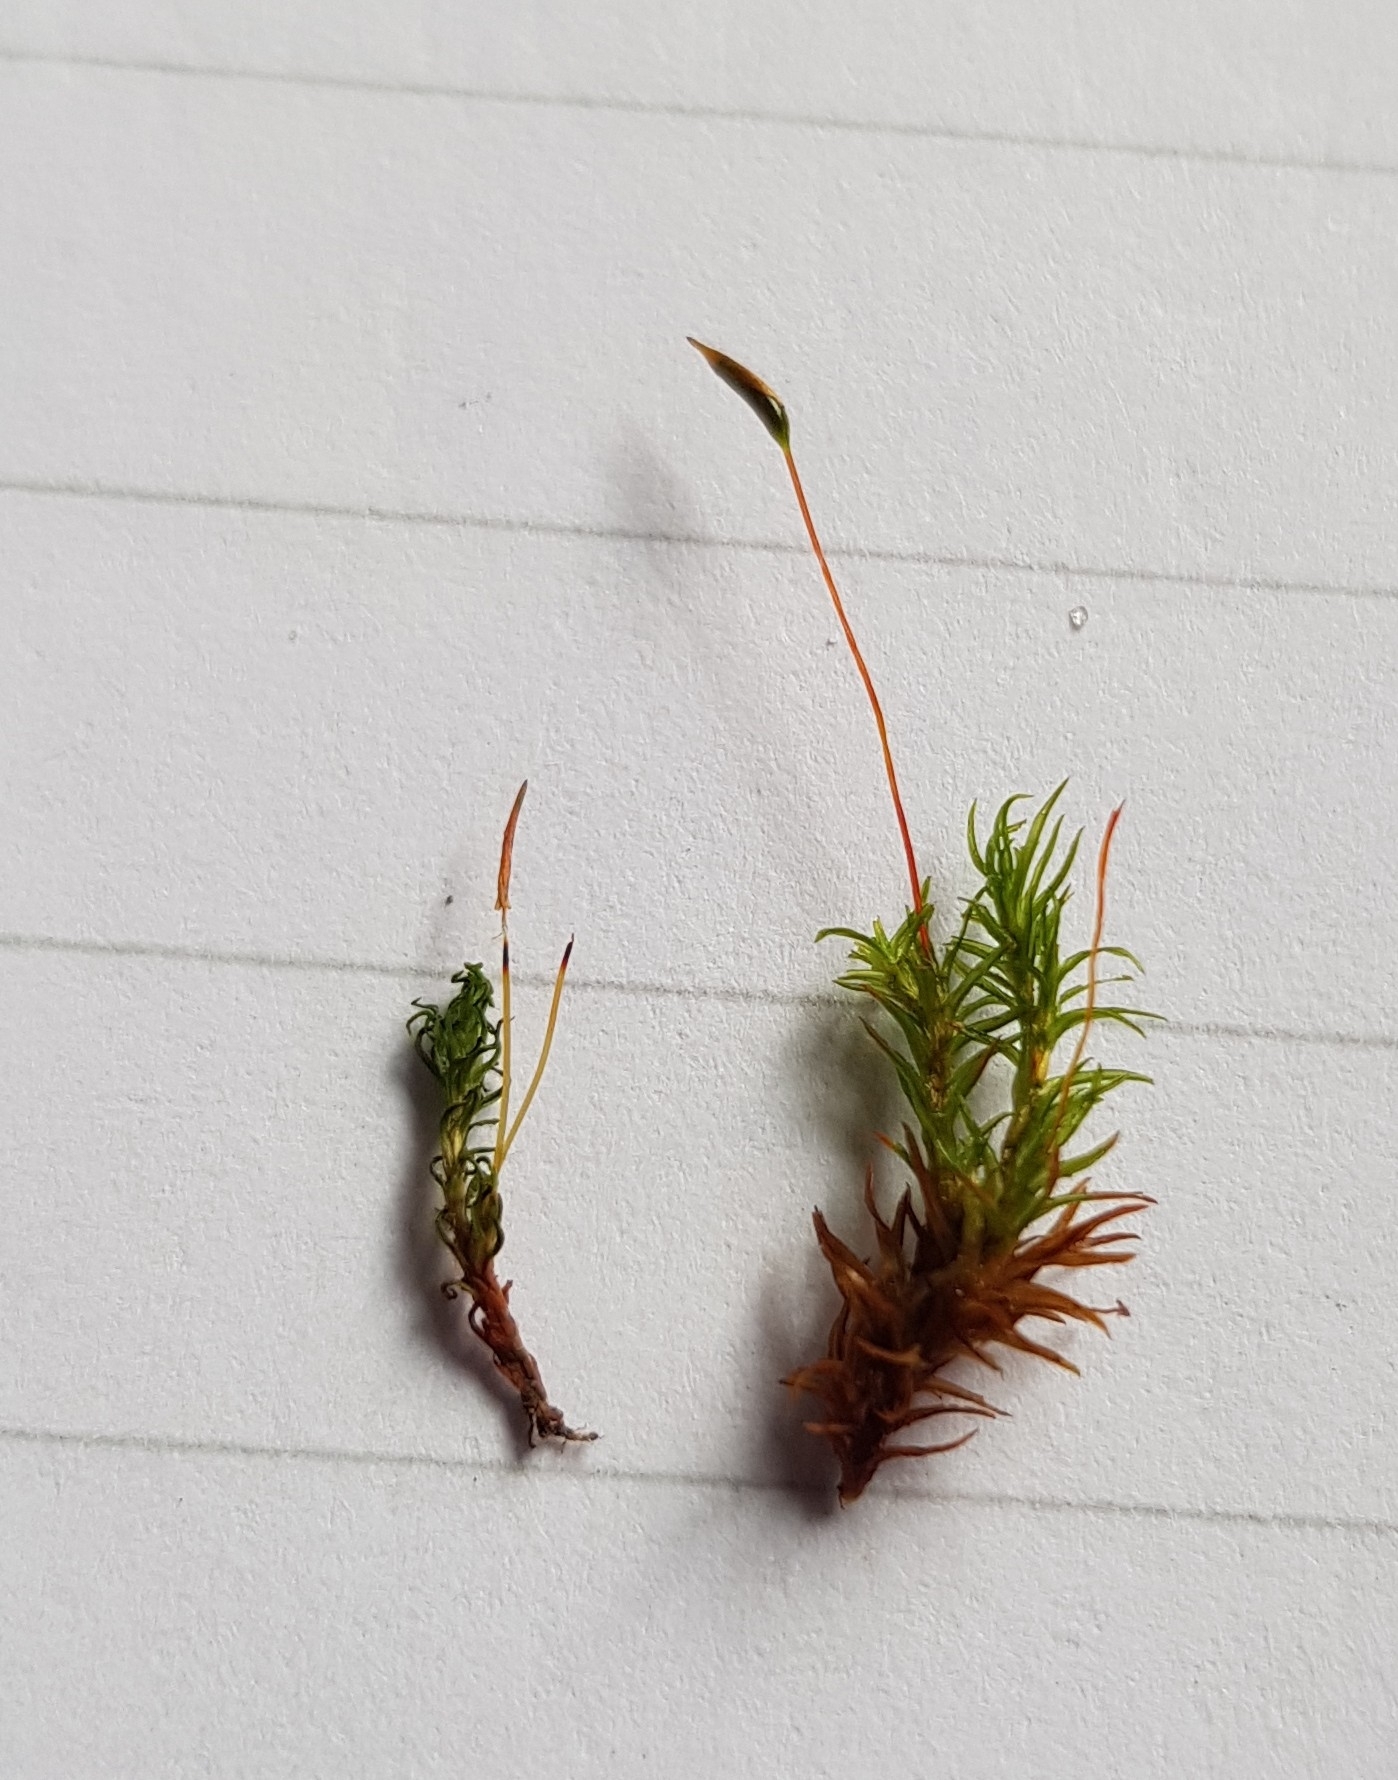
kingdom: Plantae
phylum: Bryophyta
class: Bryopsida
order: Pottiales
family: Pottiaceae
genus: Bryoerythrophyllum
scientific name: Bryoerythrophyllum recurvirostrum
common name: Red beard moss
